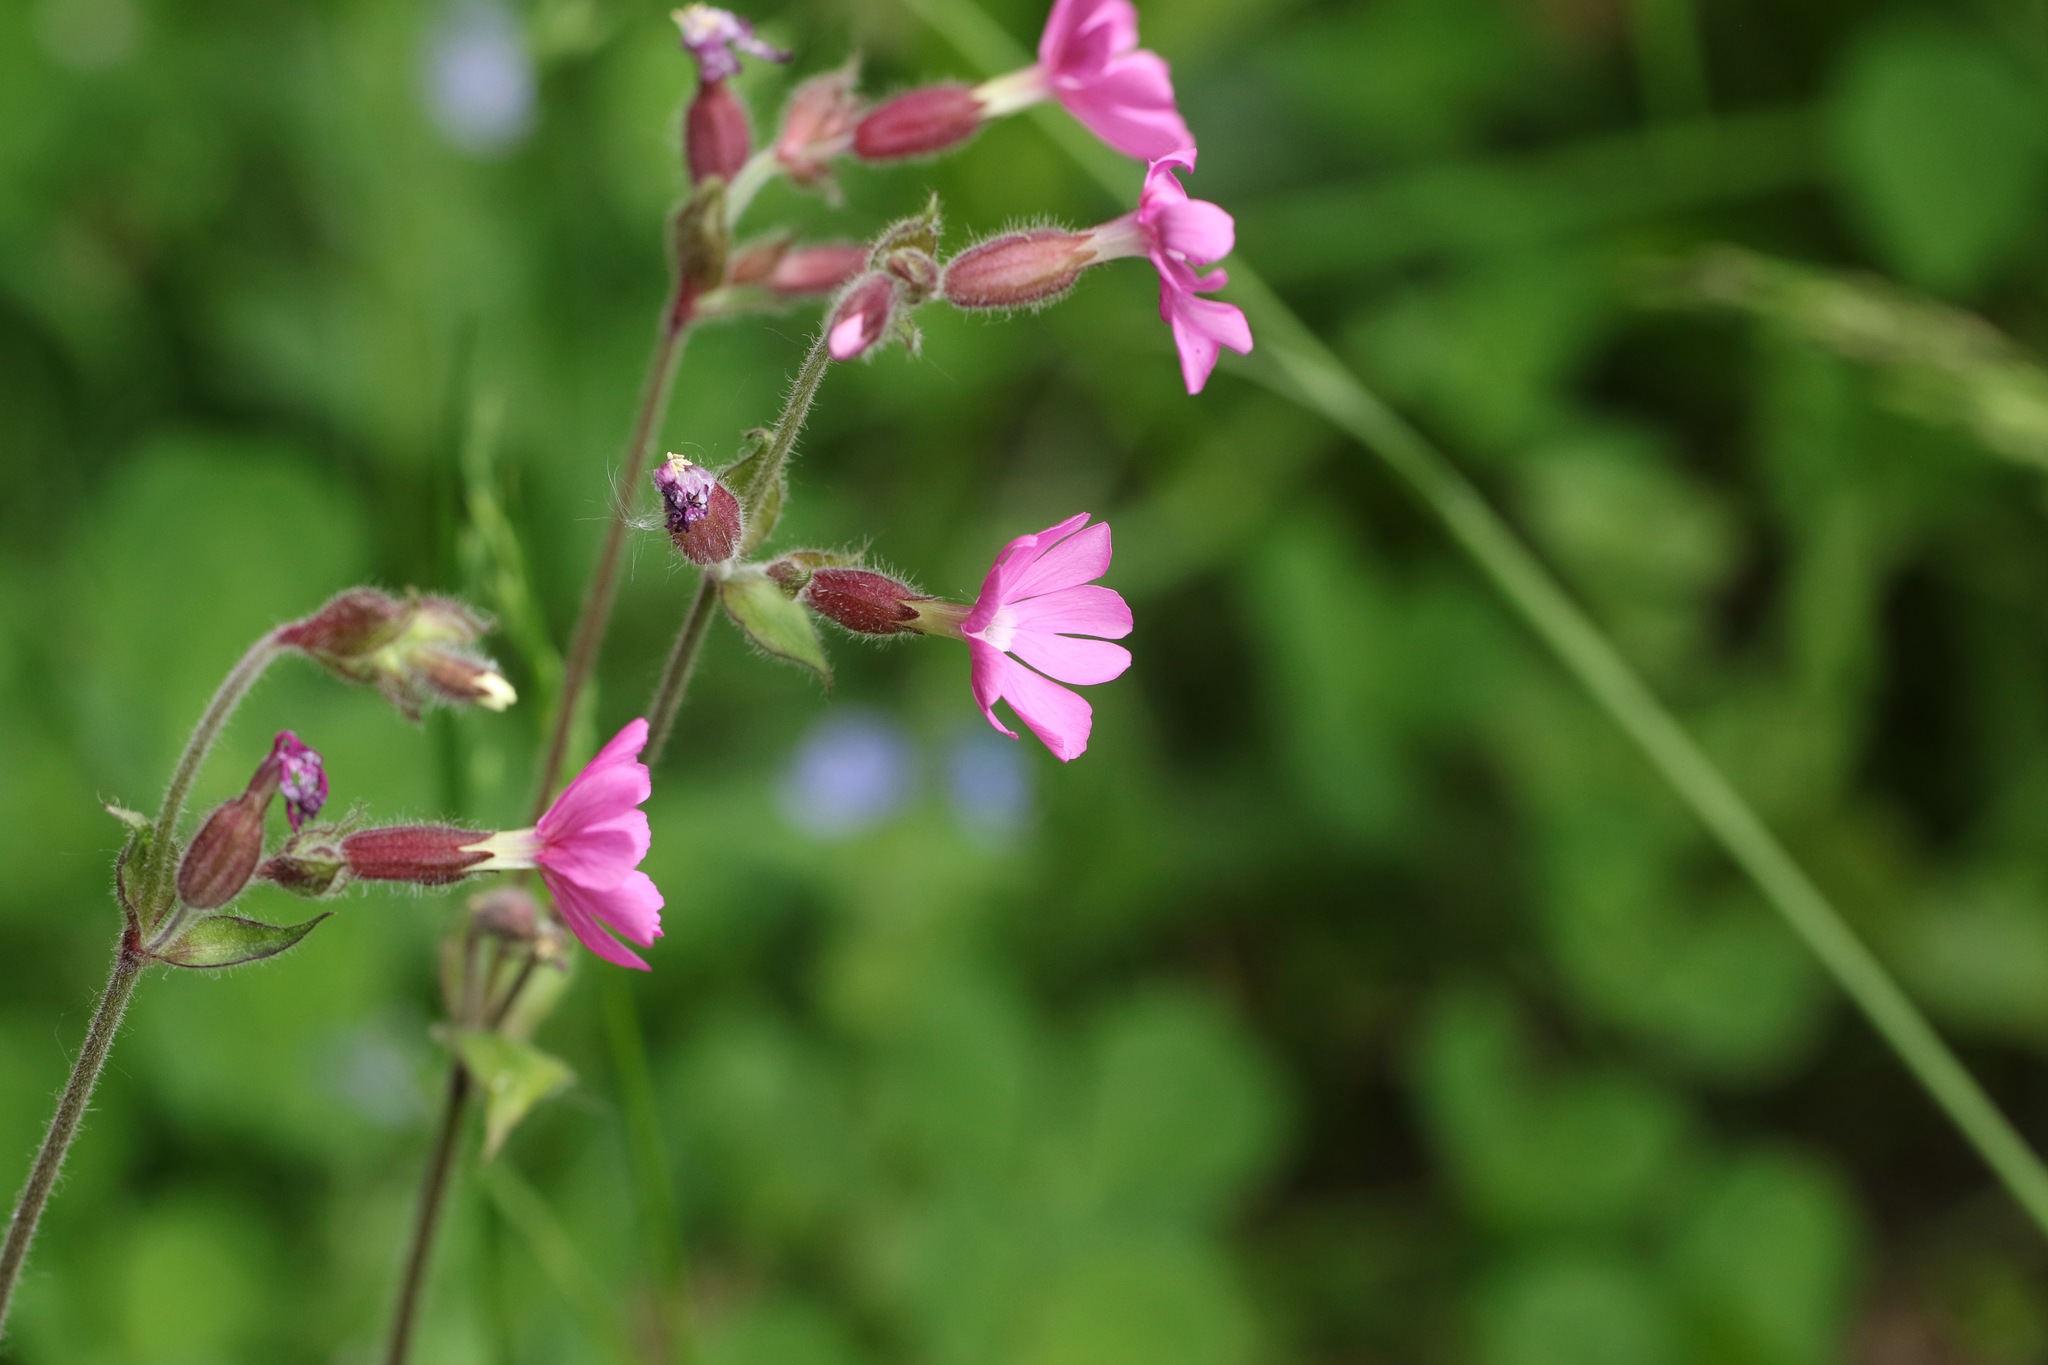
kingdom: Plantae
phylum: Tracheophyta
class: Magnoliopsida
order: Caryophyllales
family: Caryophyllaceae
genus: Silene
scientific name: Silene dioica
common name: Red campion
